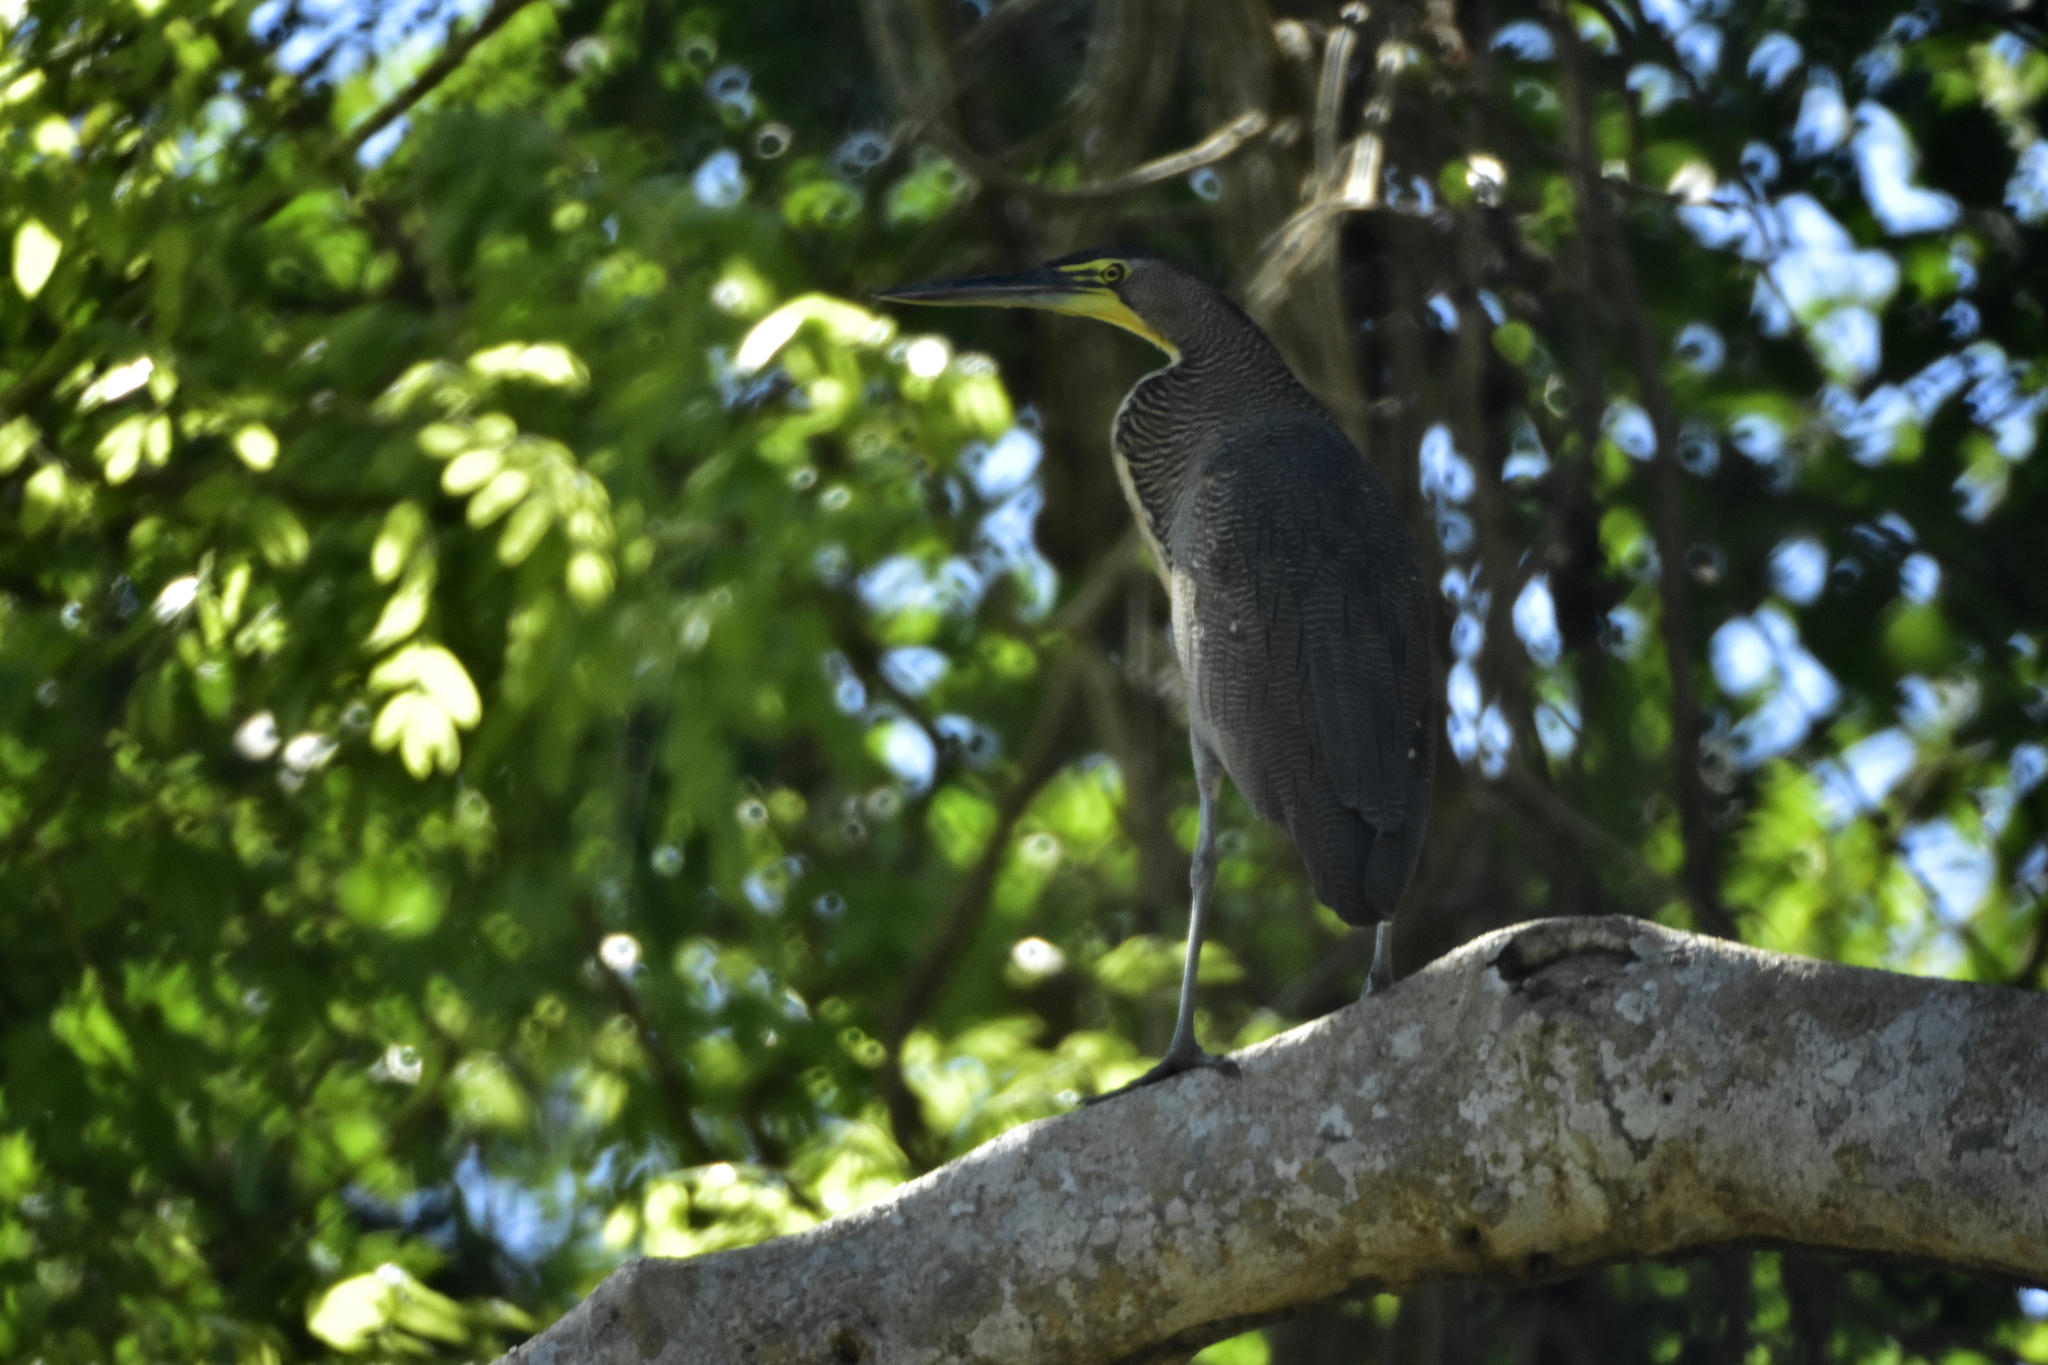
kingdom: Animalia
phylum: Chordata
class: Aves
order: Pelecaniformes
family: Ardeidae
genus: Tigrisoma
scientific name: Tigrisoma mexicanum
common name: Bare-throated tiger-heron
